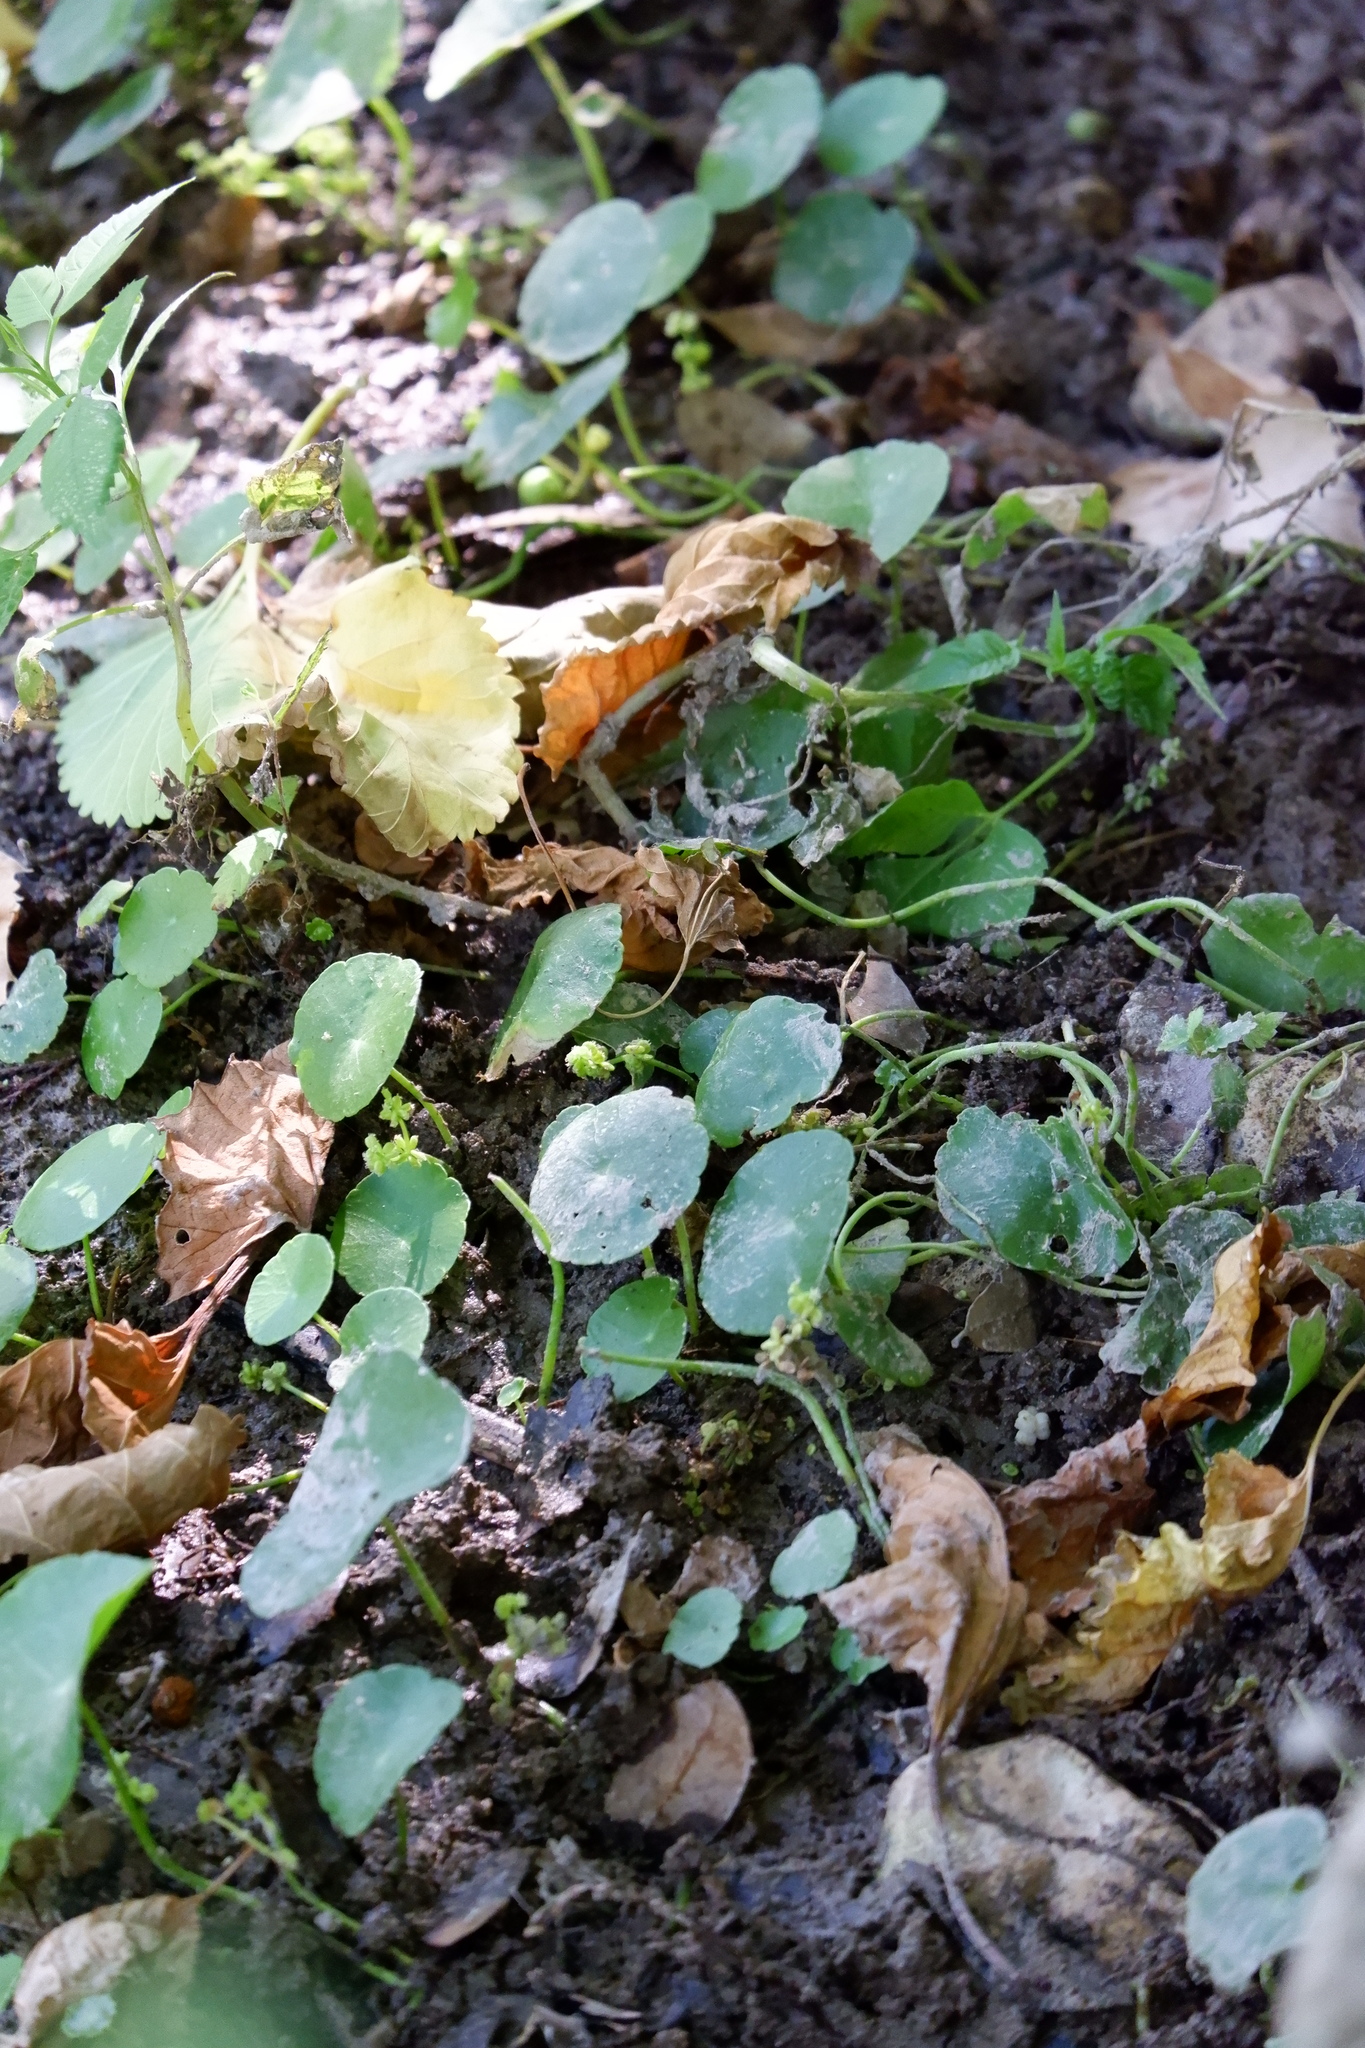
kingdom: Plantae
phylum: Tracheophyta
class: Magnoliopsida
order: Apiales
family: Araliaceae
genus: Hydrocotyle
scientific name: Hydrocotyle verticillata
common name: Whorled marshpennywort
